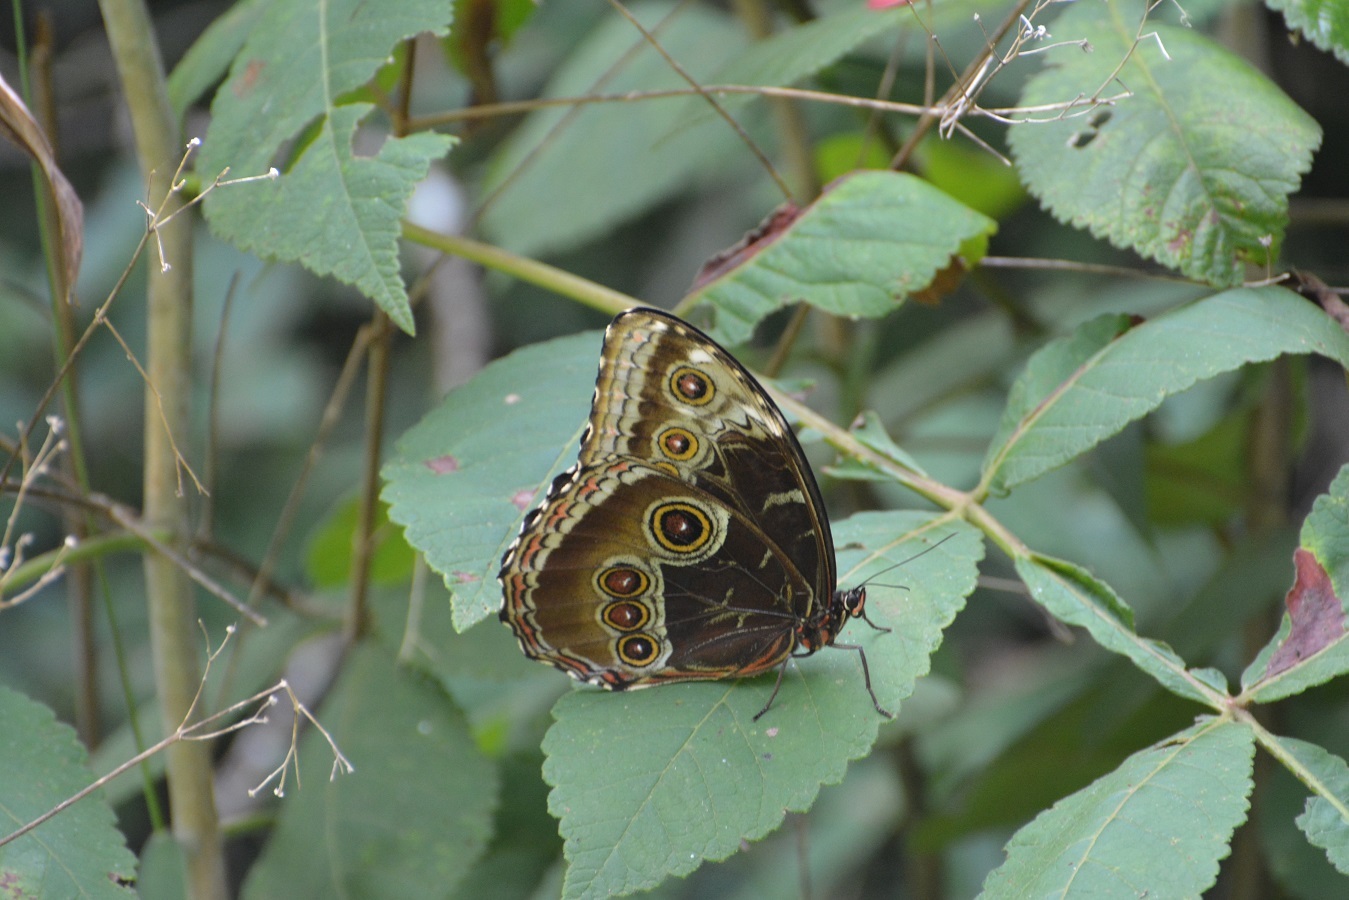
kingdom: Animalia
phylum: Arthropoda
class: Insecta
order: Lepidoptera
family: Nymphalidae
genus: Morpho
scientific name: Morpho helenor
